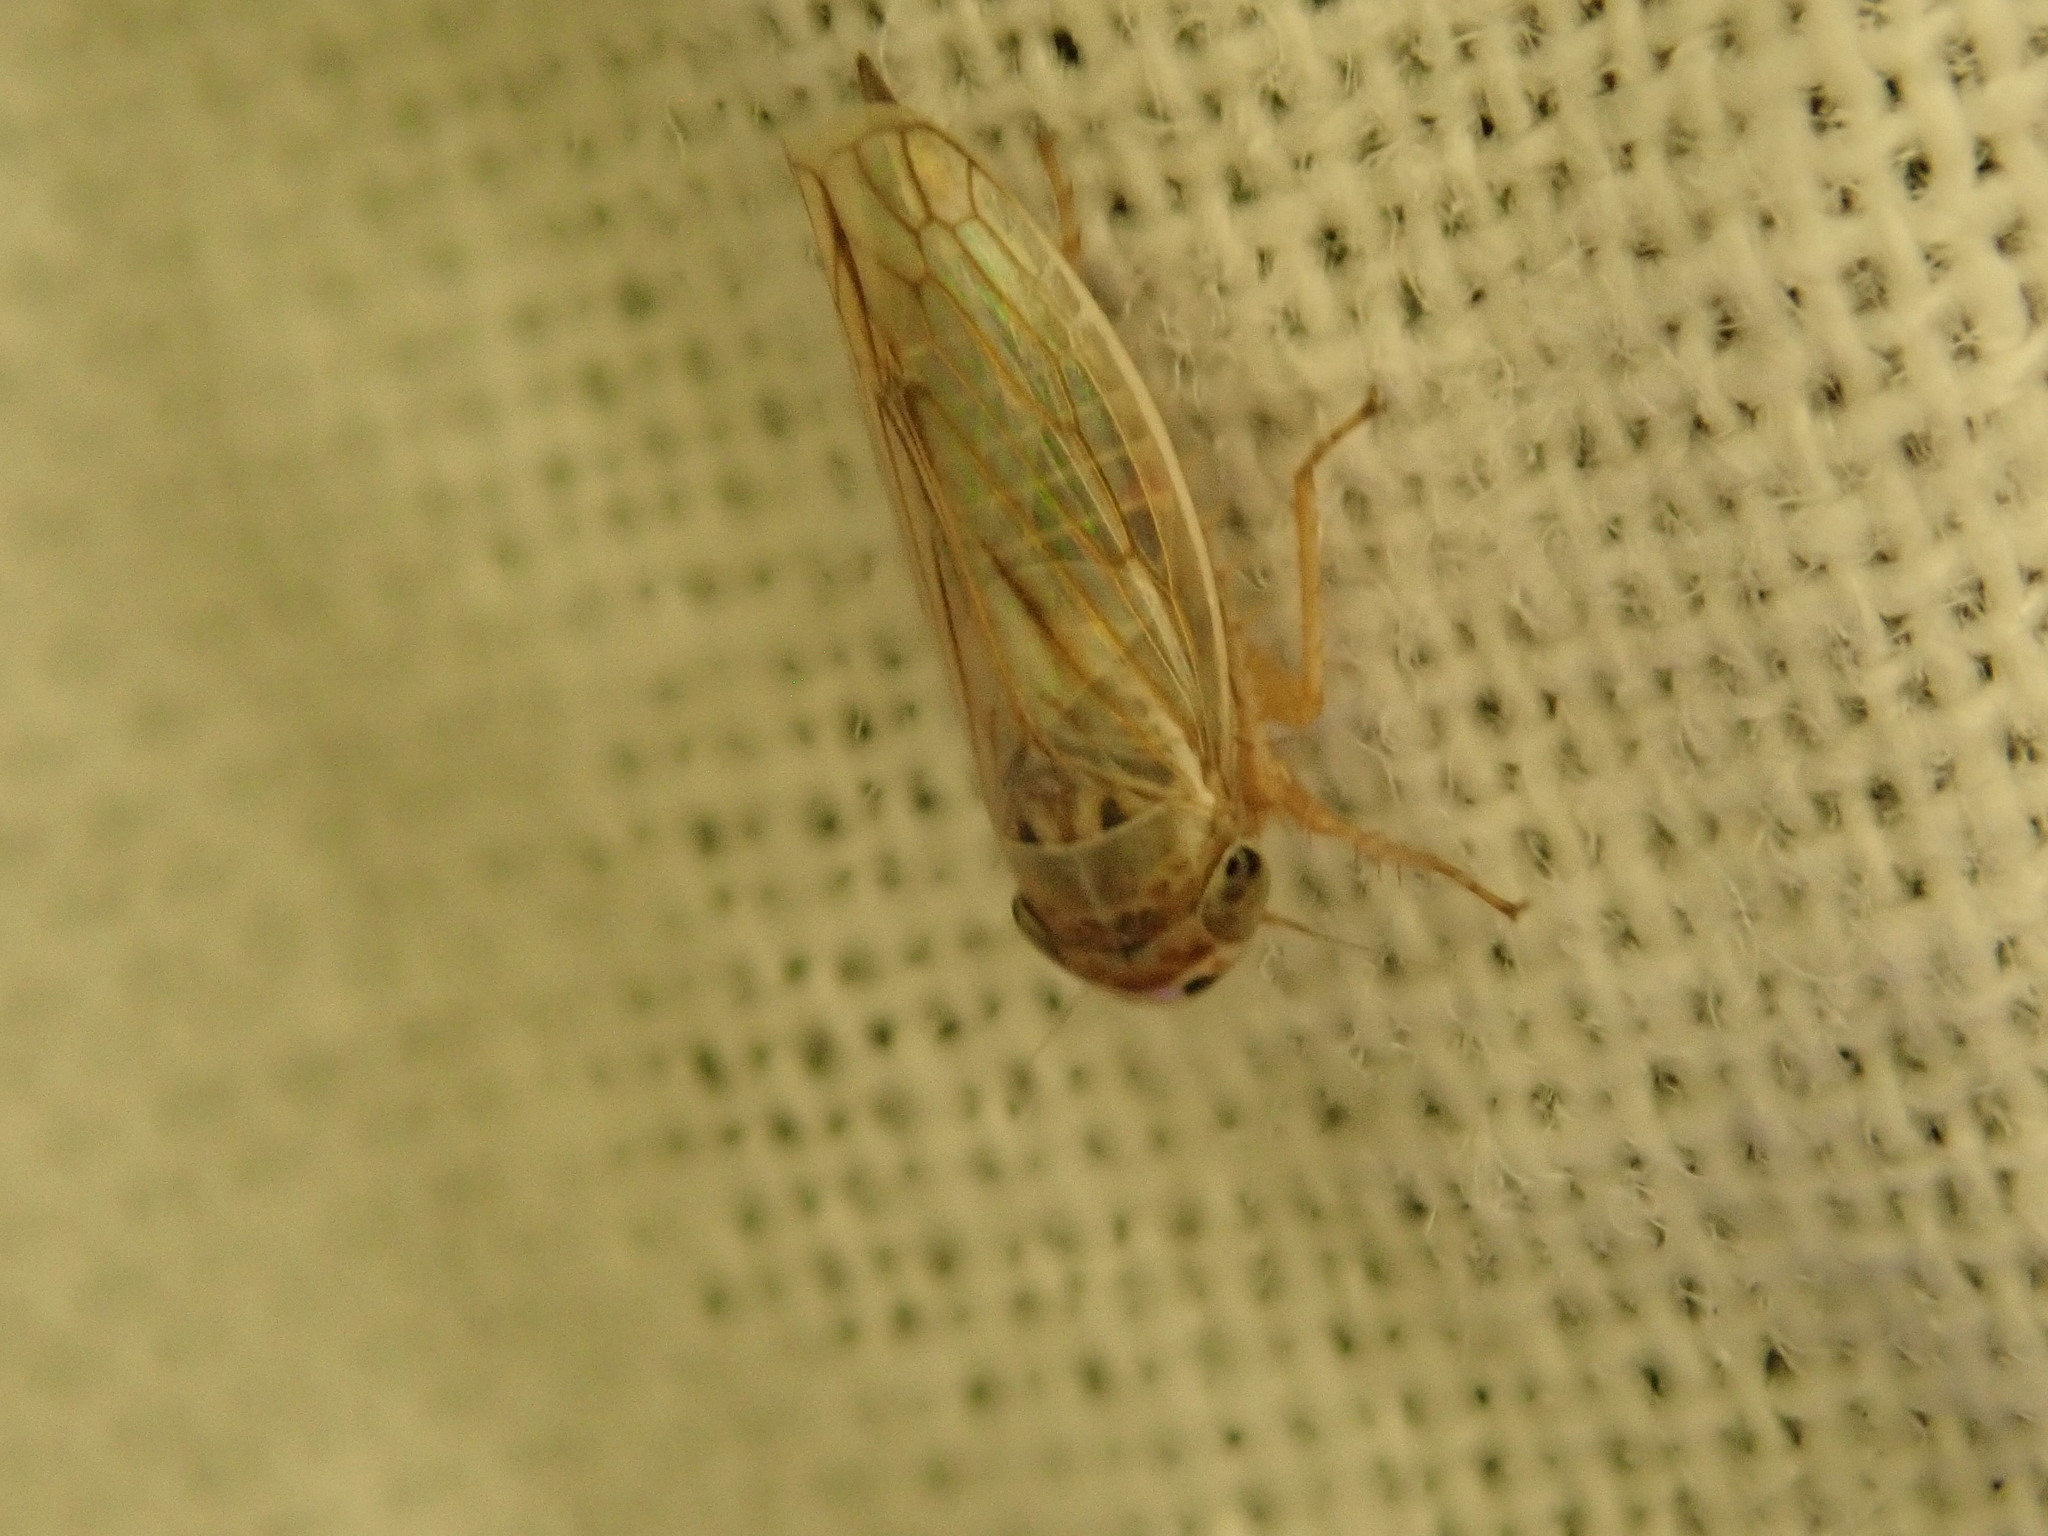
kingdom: Animalia
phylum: Arthropoda
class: Insecta
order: Hemiptera
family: Cicadellidae
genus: Exitianus
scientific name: Exitianus exitiosus
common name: Gray lawn leafhopper
